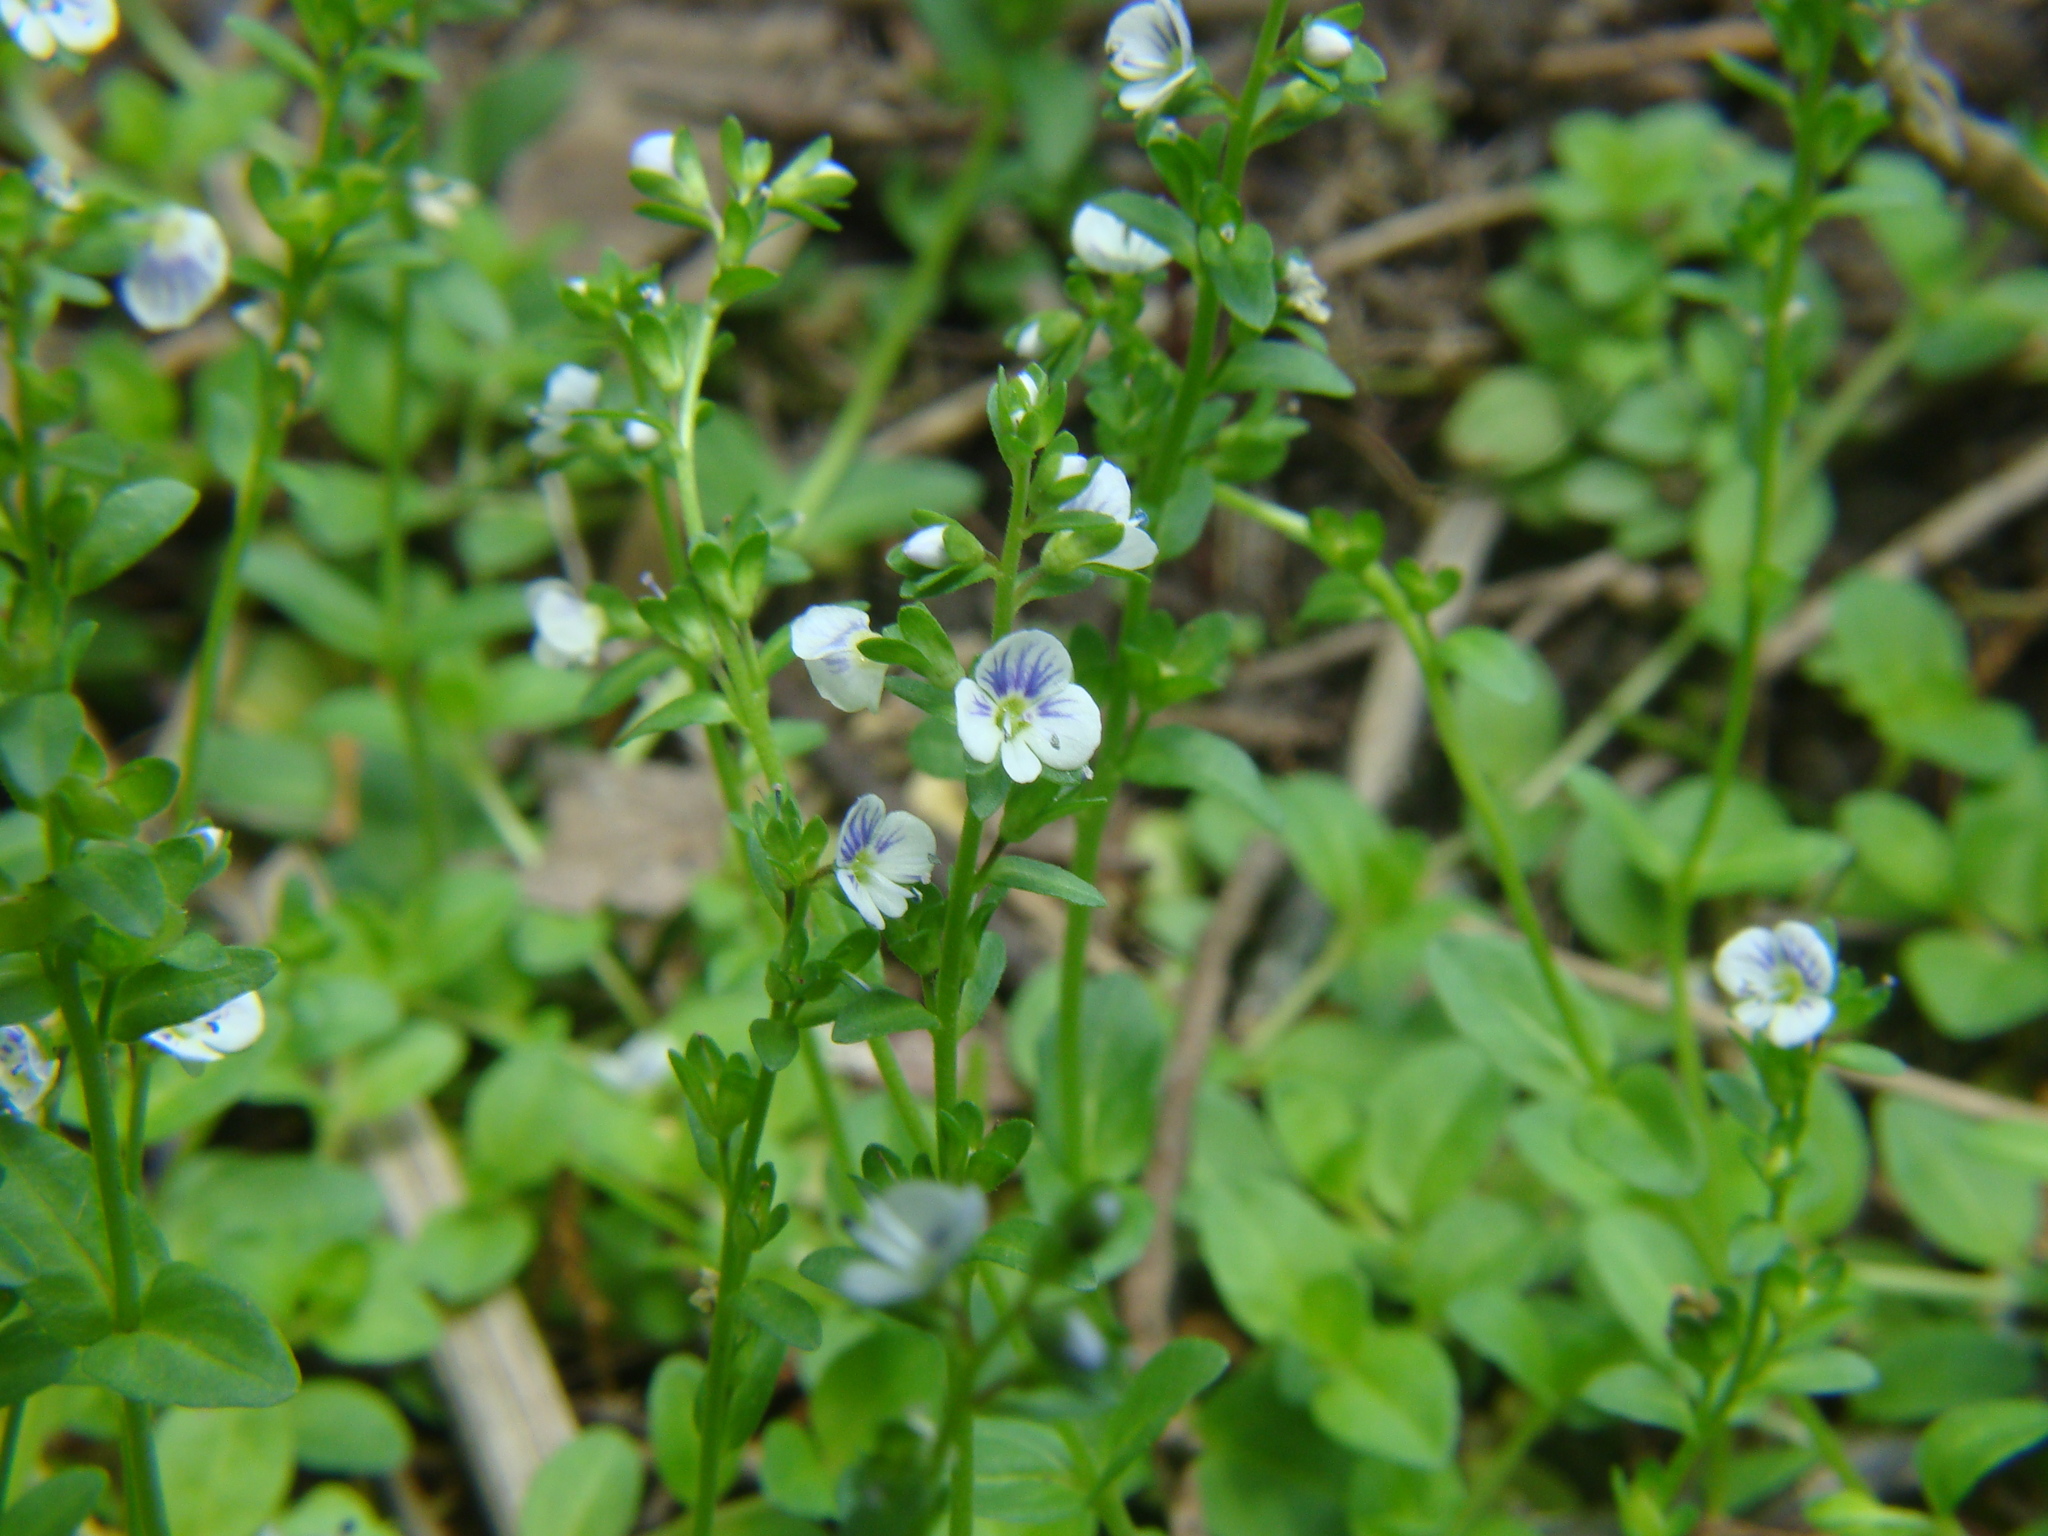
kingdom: Plantae
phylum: Tracheophyta
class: Magnoliopsida
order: Lamiales
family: Plantaginaceae
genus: Veronica
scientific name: Veronica serpyllifolia
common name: Thyme-leaved speedwell
